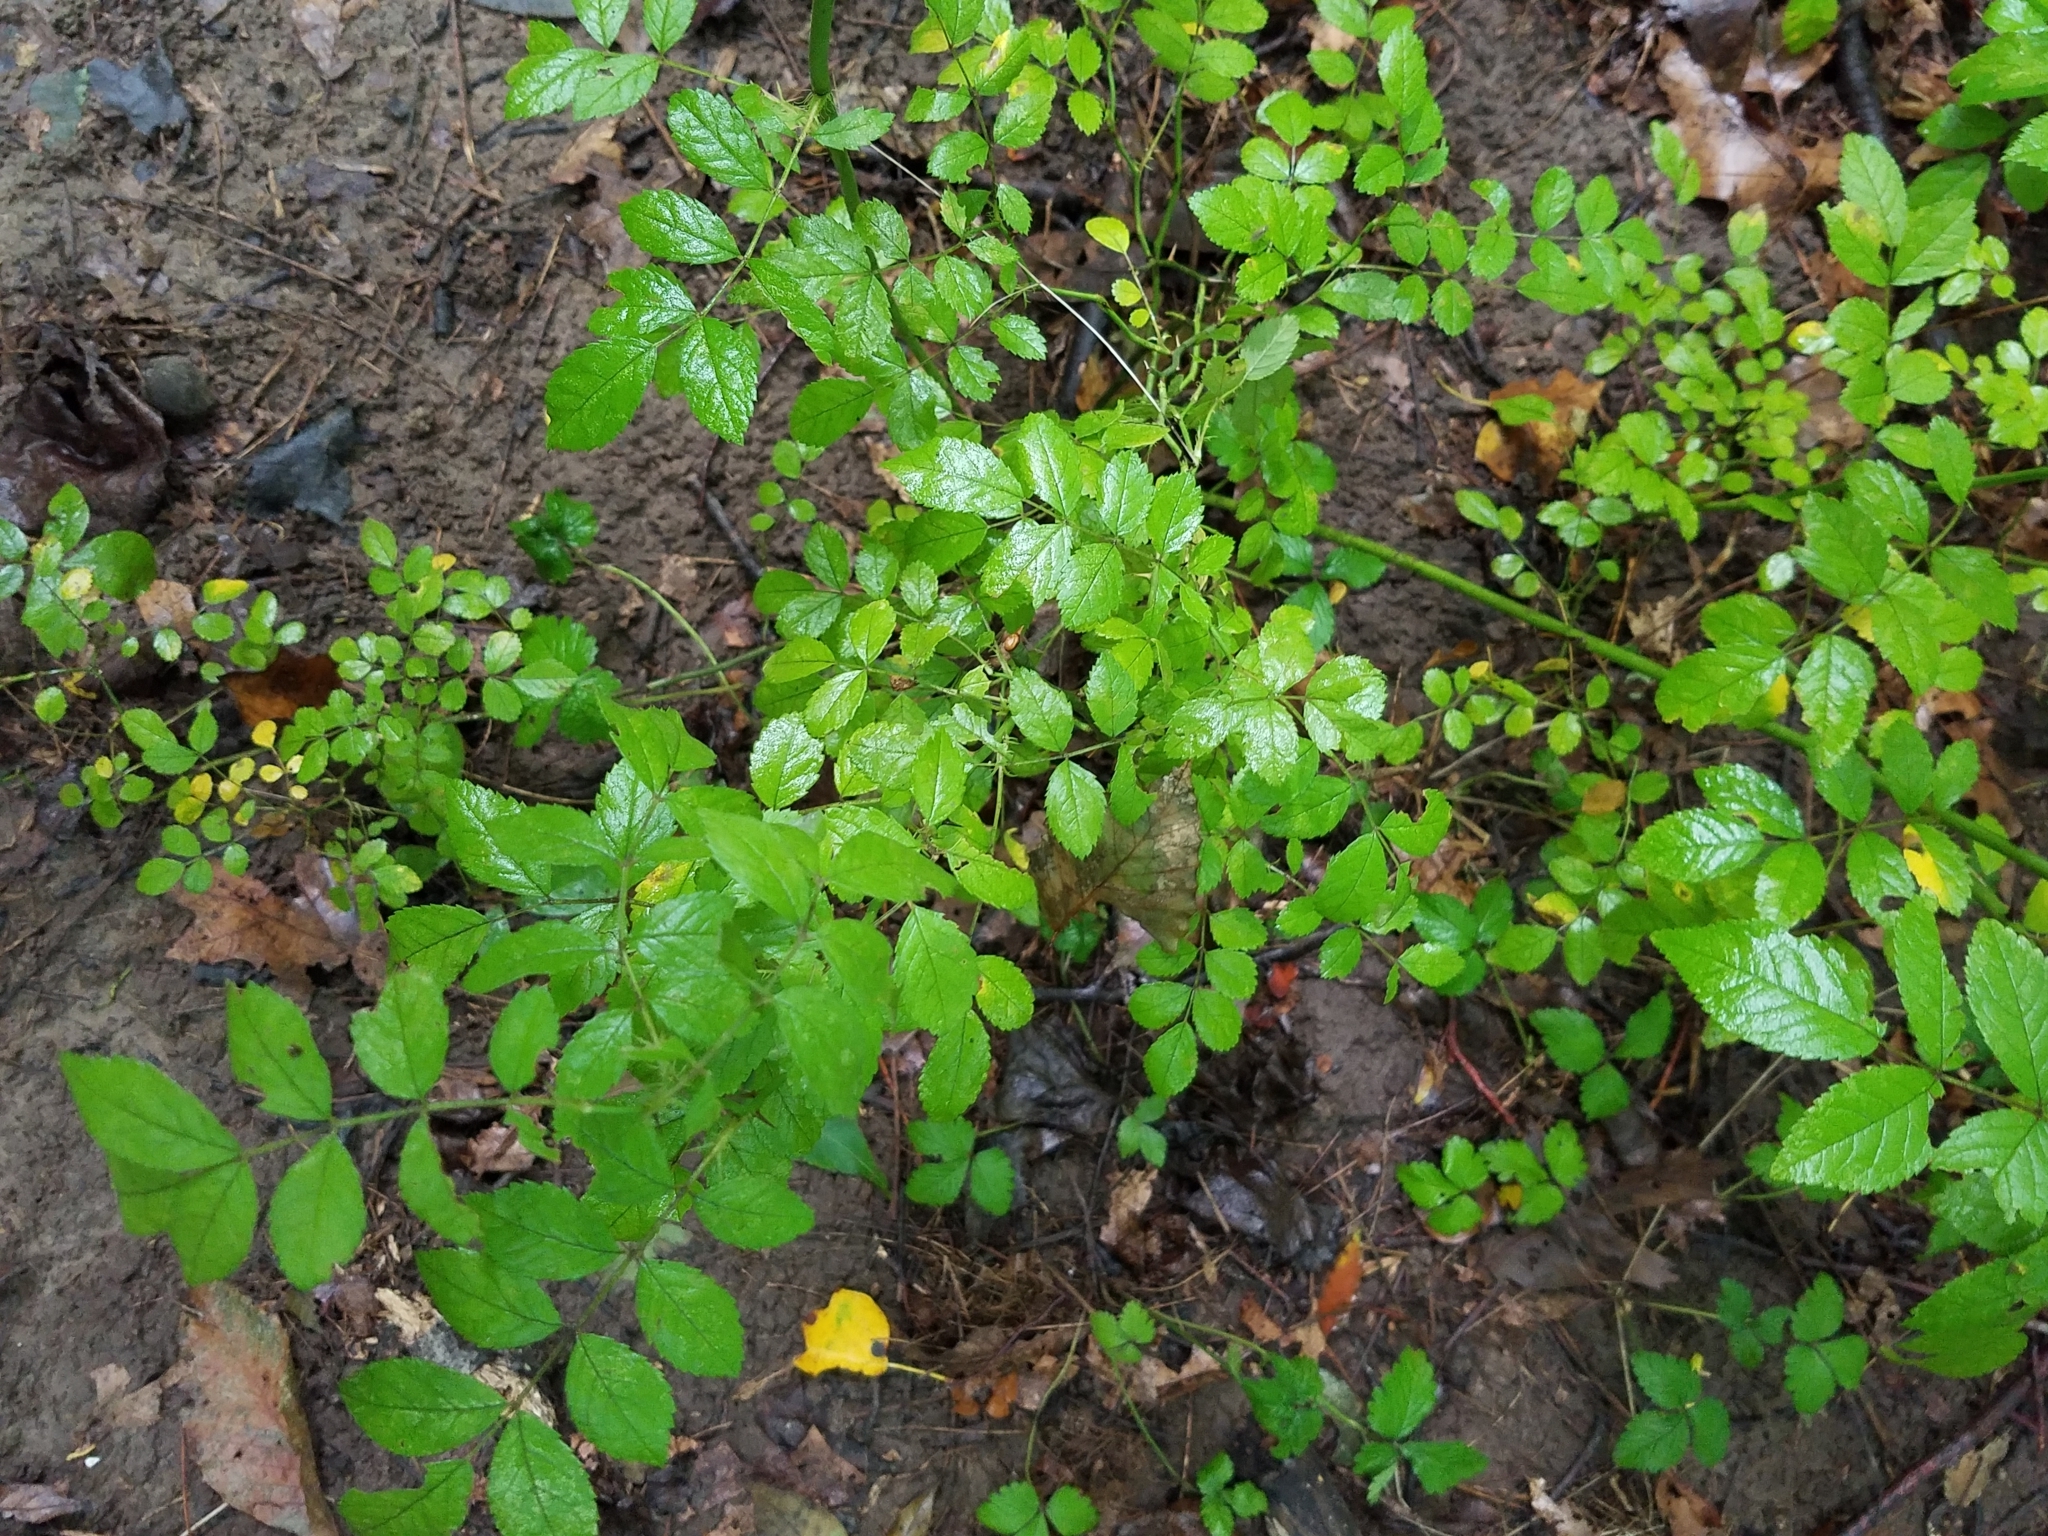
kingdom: Plantae
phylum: Tracheophyta
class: Magnoliopsida
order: Rosales
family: Rosaceae
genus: Rosa
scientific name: Rosa multiflora
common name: Multiflora rose
